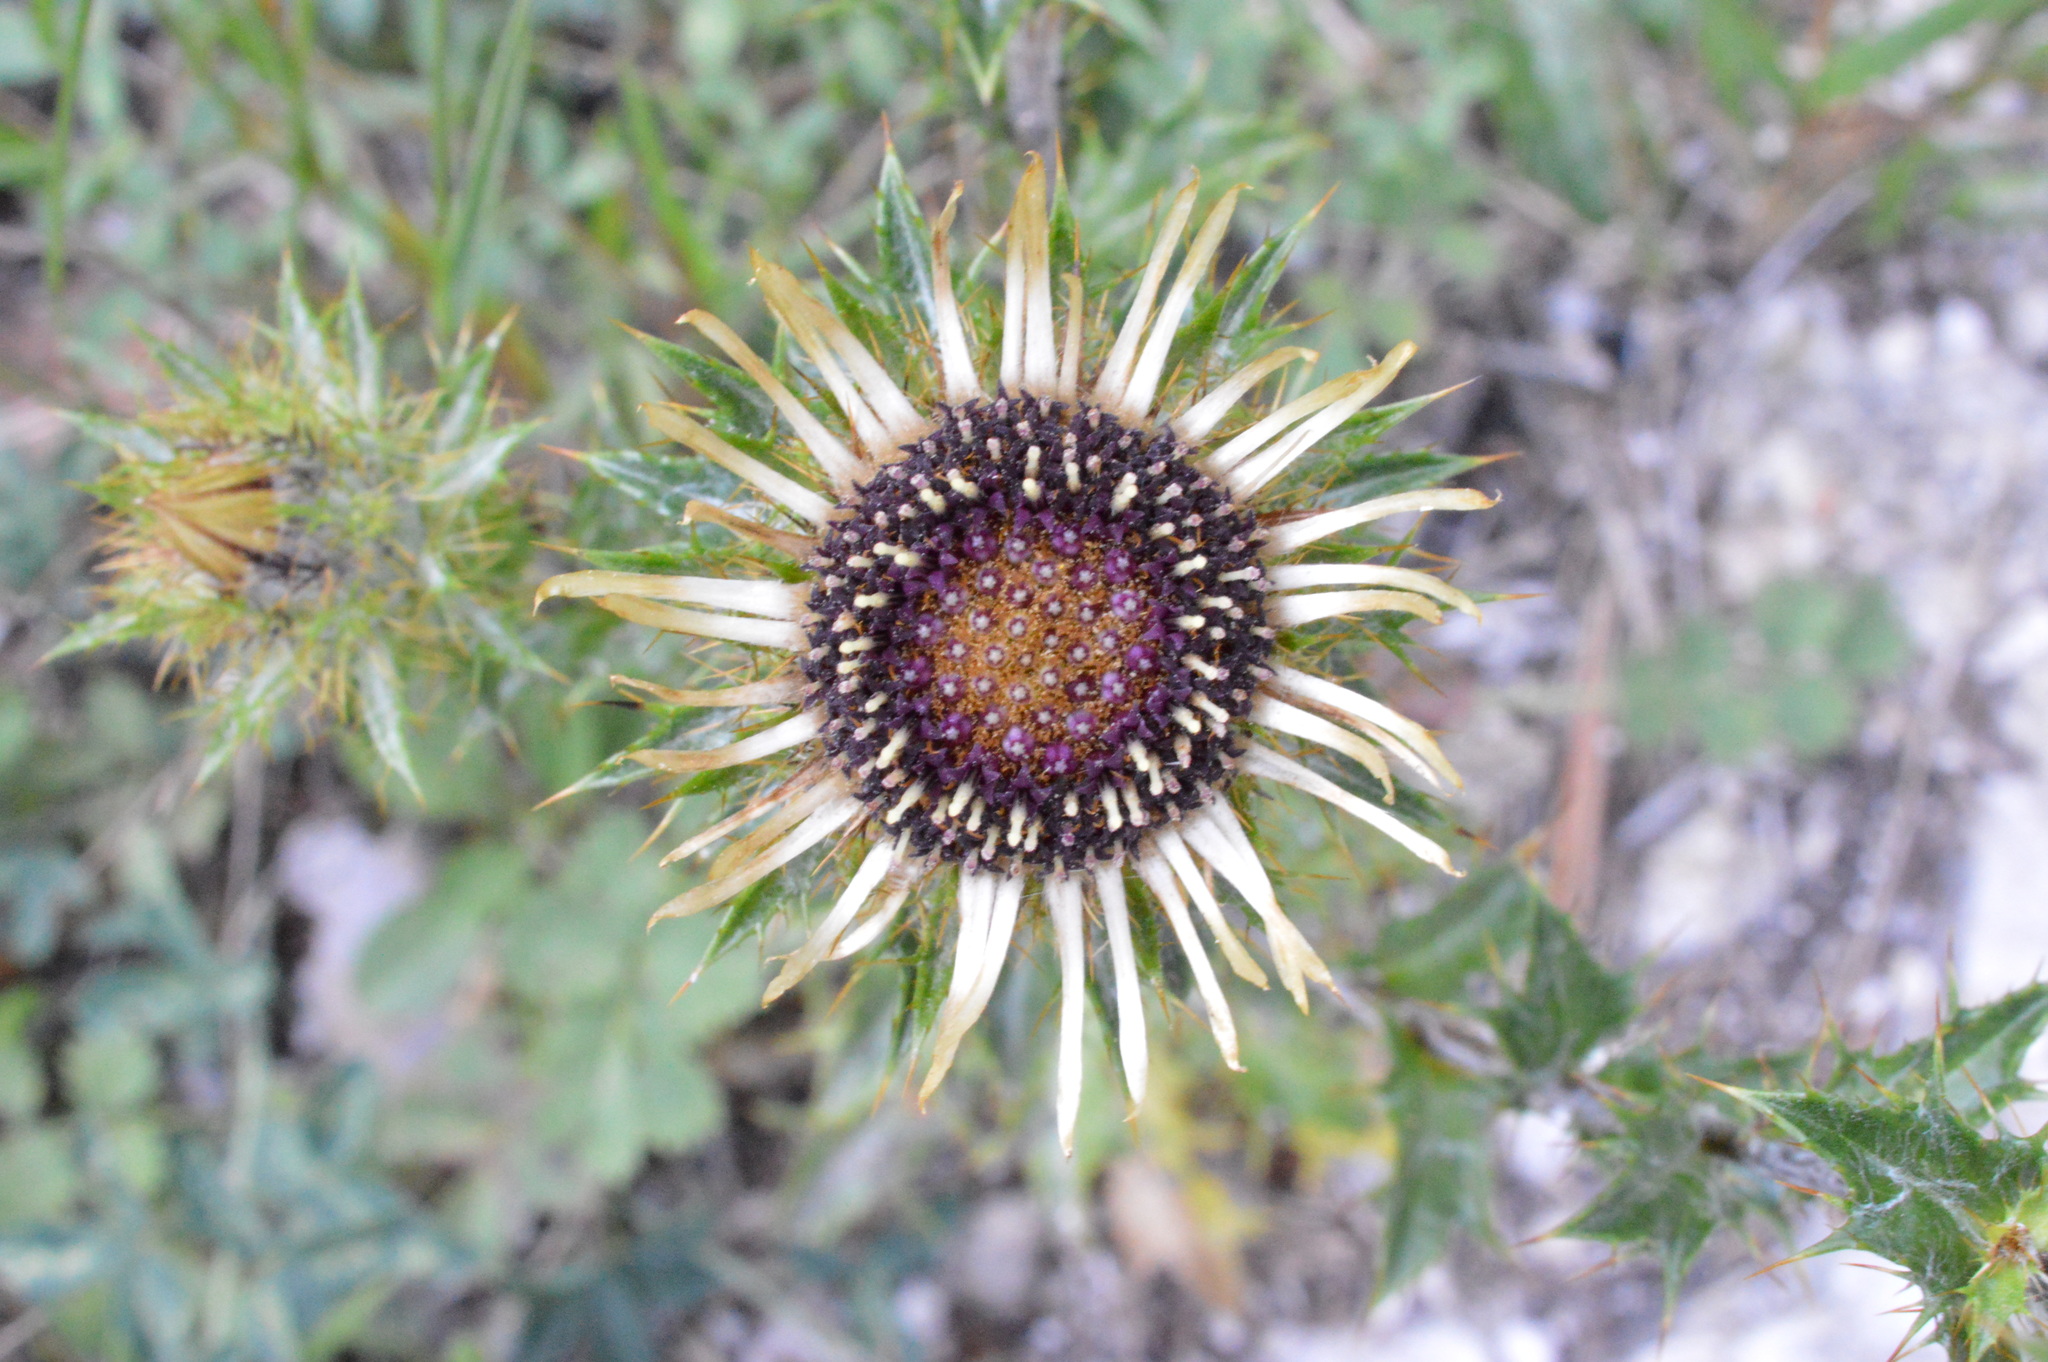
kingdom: Plantae
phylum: Tracheophyta
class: Magnoliopsida
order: Asterales
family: Asteraceae
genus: Carlina
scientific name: Carlina vulgaris
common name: Carline thistle
